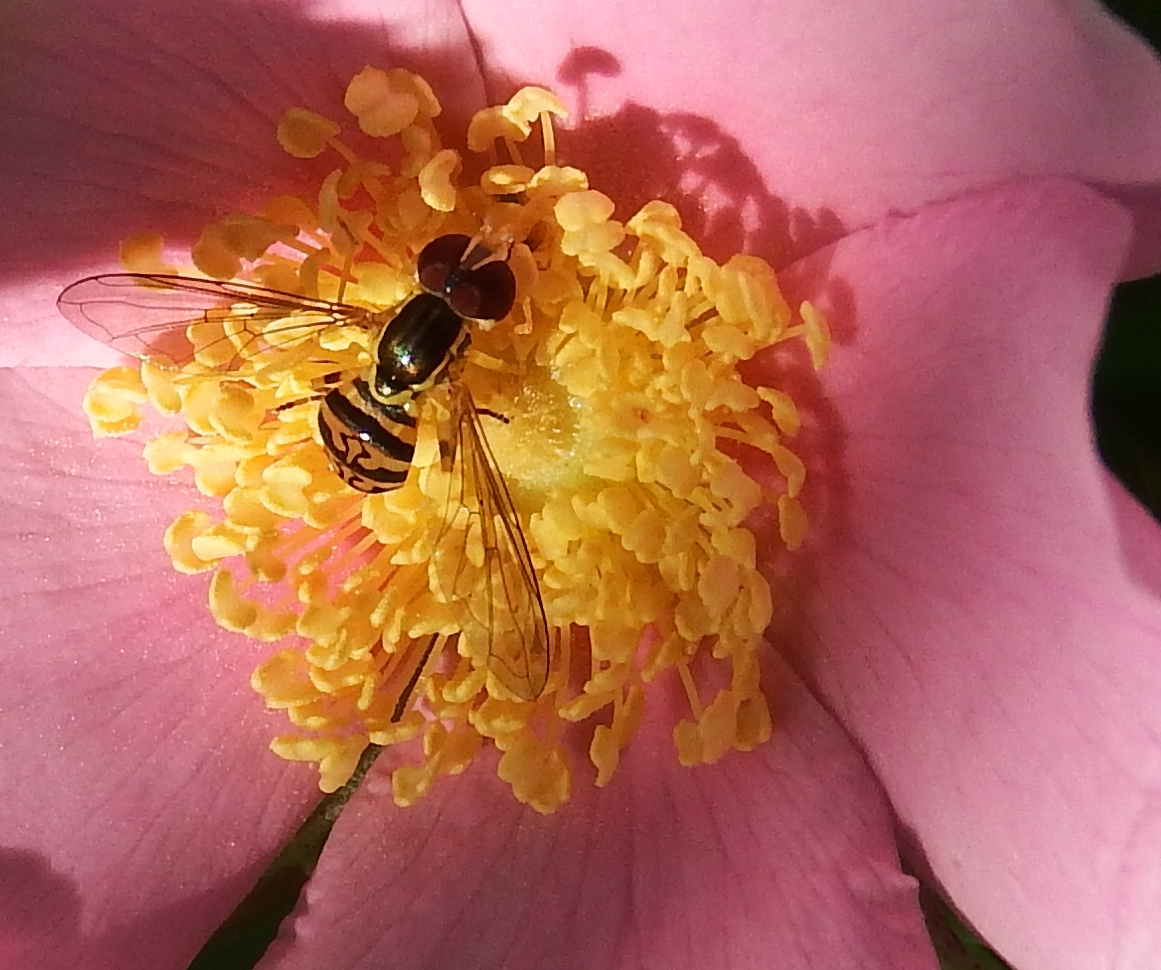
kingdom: Animalia
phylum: Arthropoda
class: Insecta
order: Diptera
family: Syrphidae
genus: Toxomerus
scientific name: Toxomerus geminatus
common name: Eastern calligrapher
